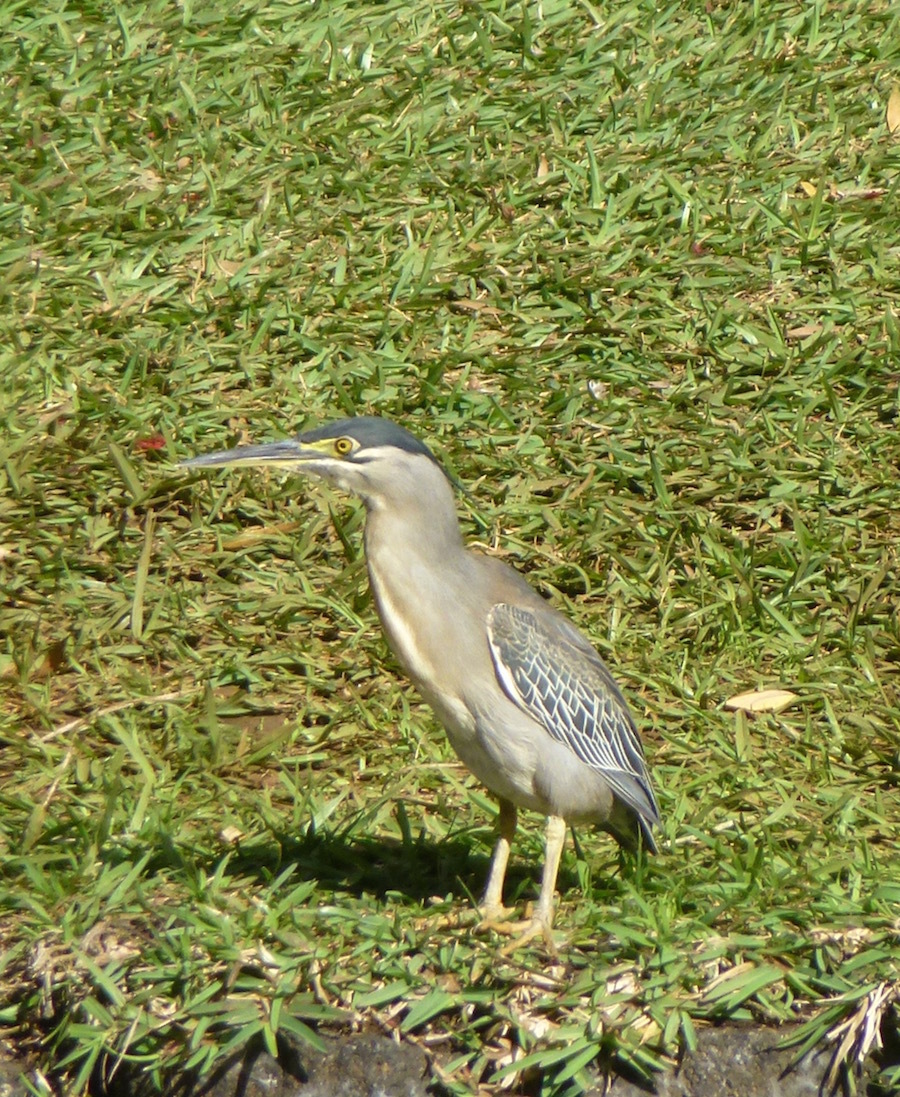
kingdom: Animalia
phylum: Chordata
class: Aves
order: Pelecaniformes
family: Ardeidae
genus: Butorides
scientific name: Butorides striata
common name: Striated heron
